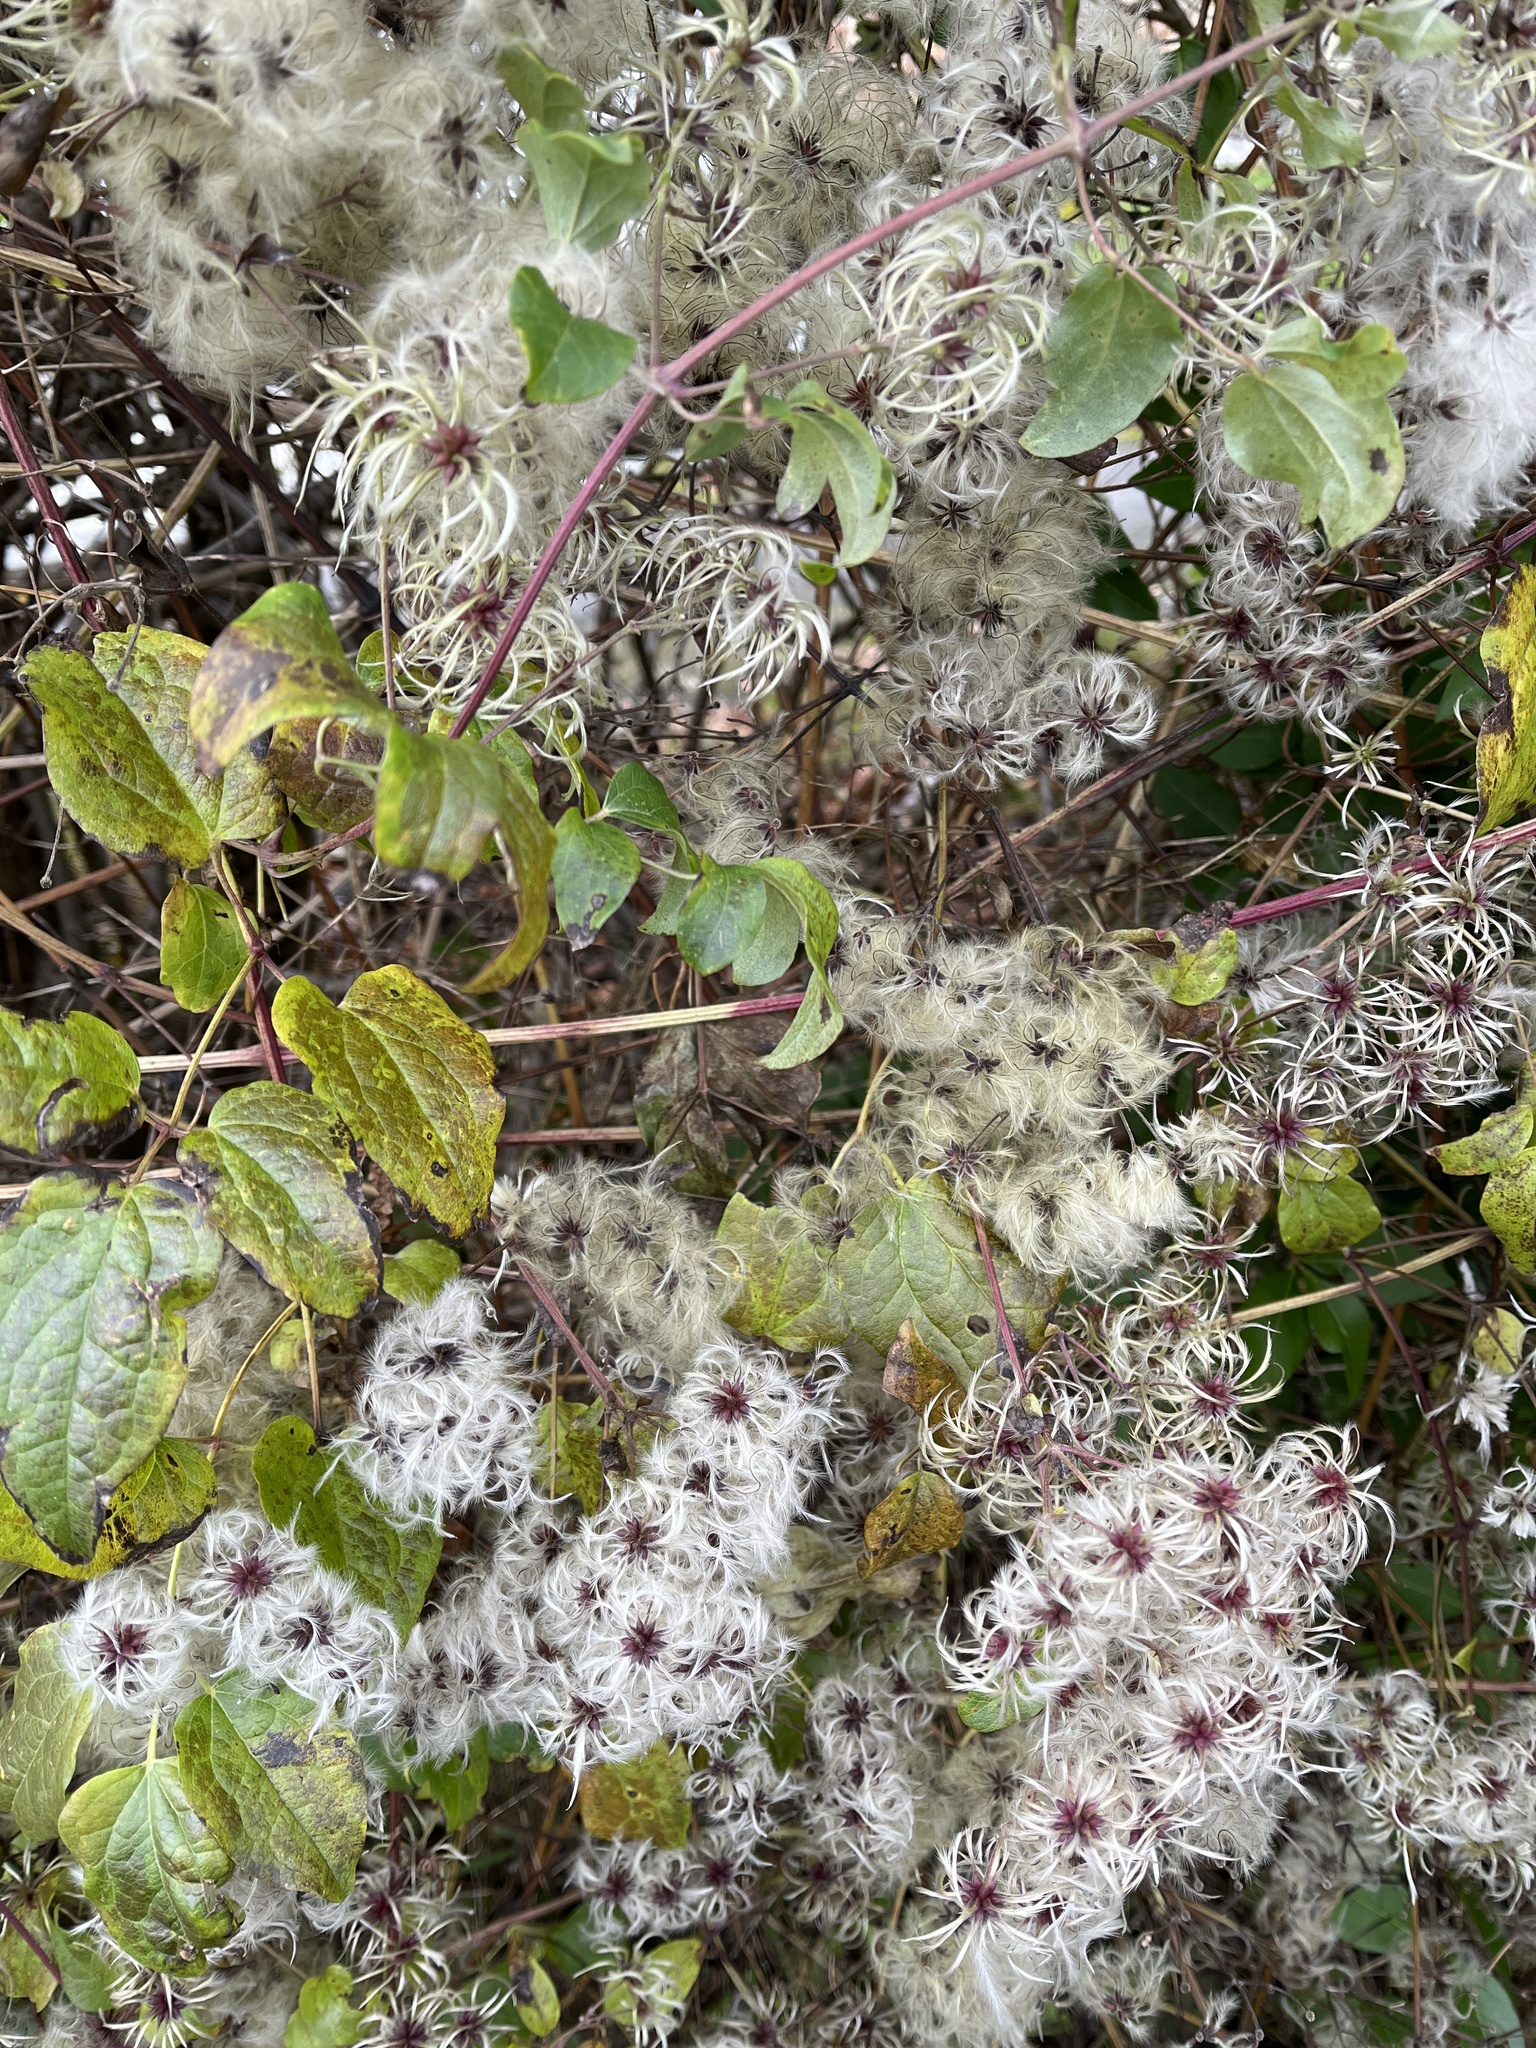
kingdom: Plantae
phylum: Tracheophyta
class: Magnoliopsida
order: Ranunculales
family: Ranunculaceae
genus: Clematis
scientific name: Clematis vitalba
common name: Evergreen clematis
